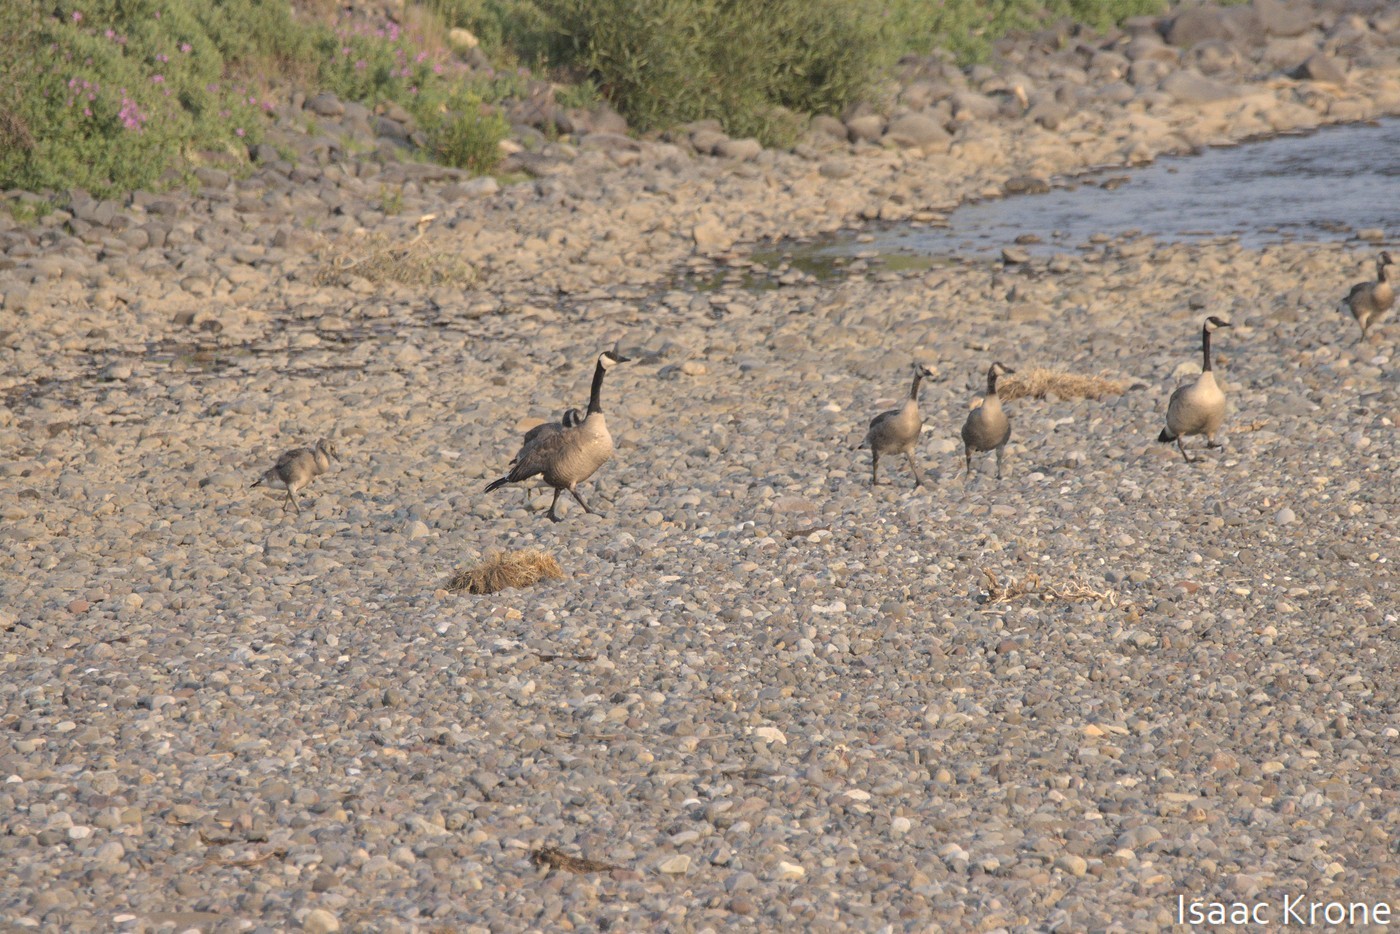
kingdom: Animalia
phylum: Chordata
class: Aves
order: Anseriformes
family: Anatidae
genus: Branta
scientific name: Branta canadensis
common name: Canada goose
